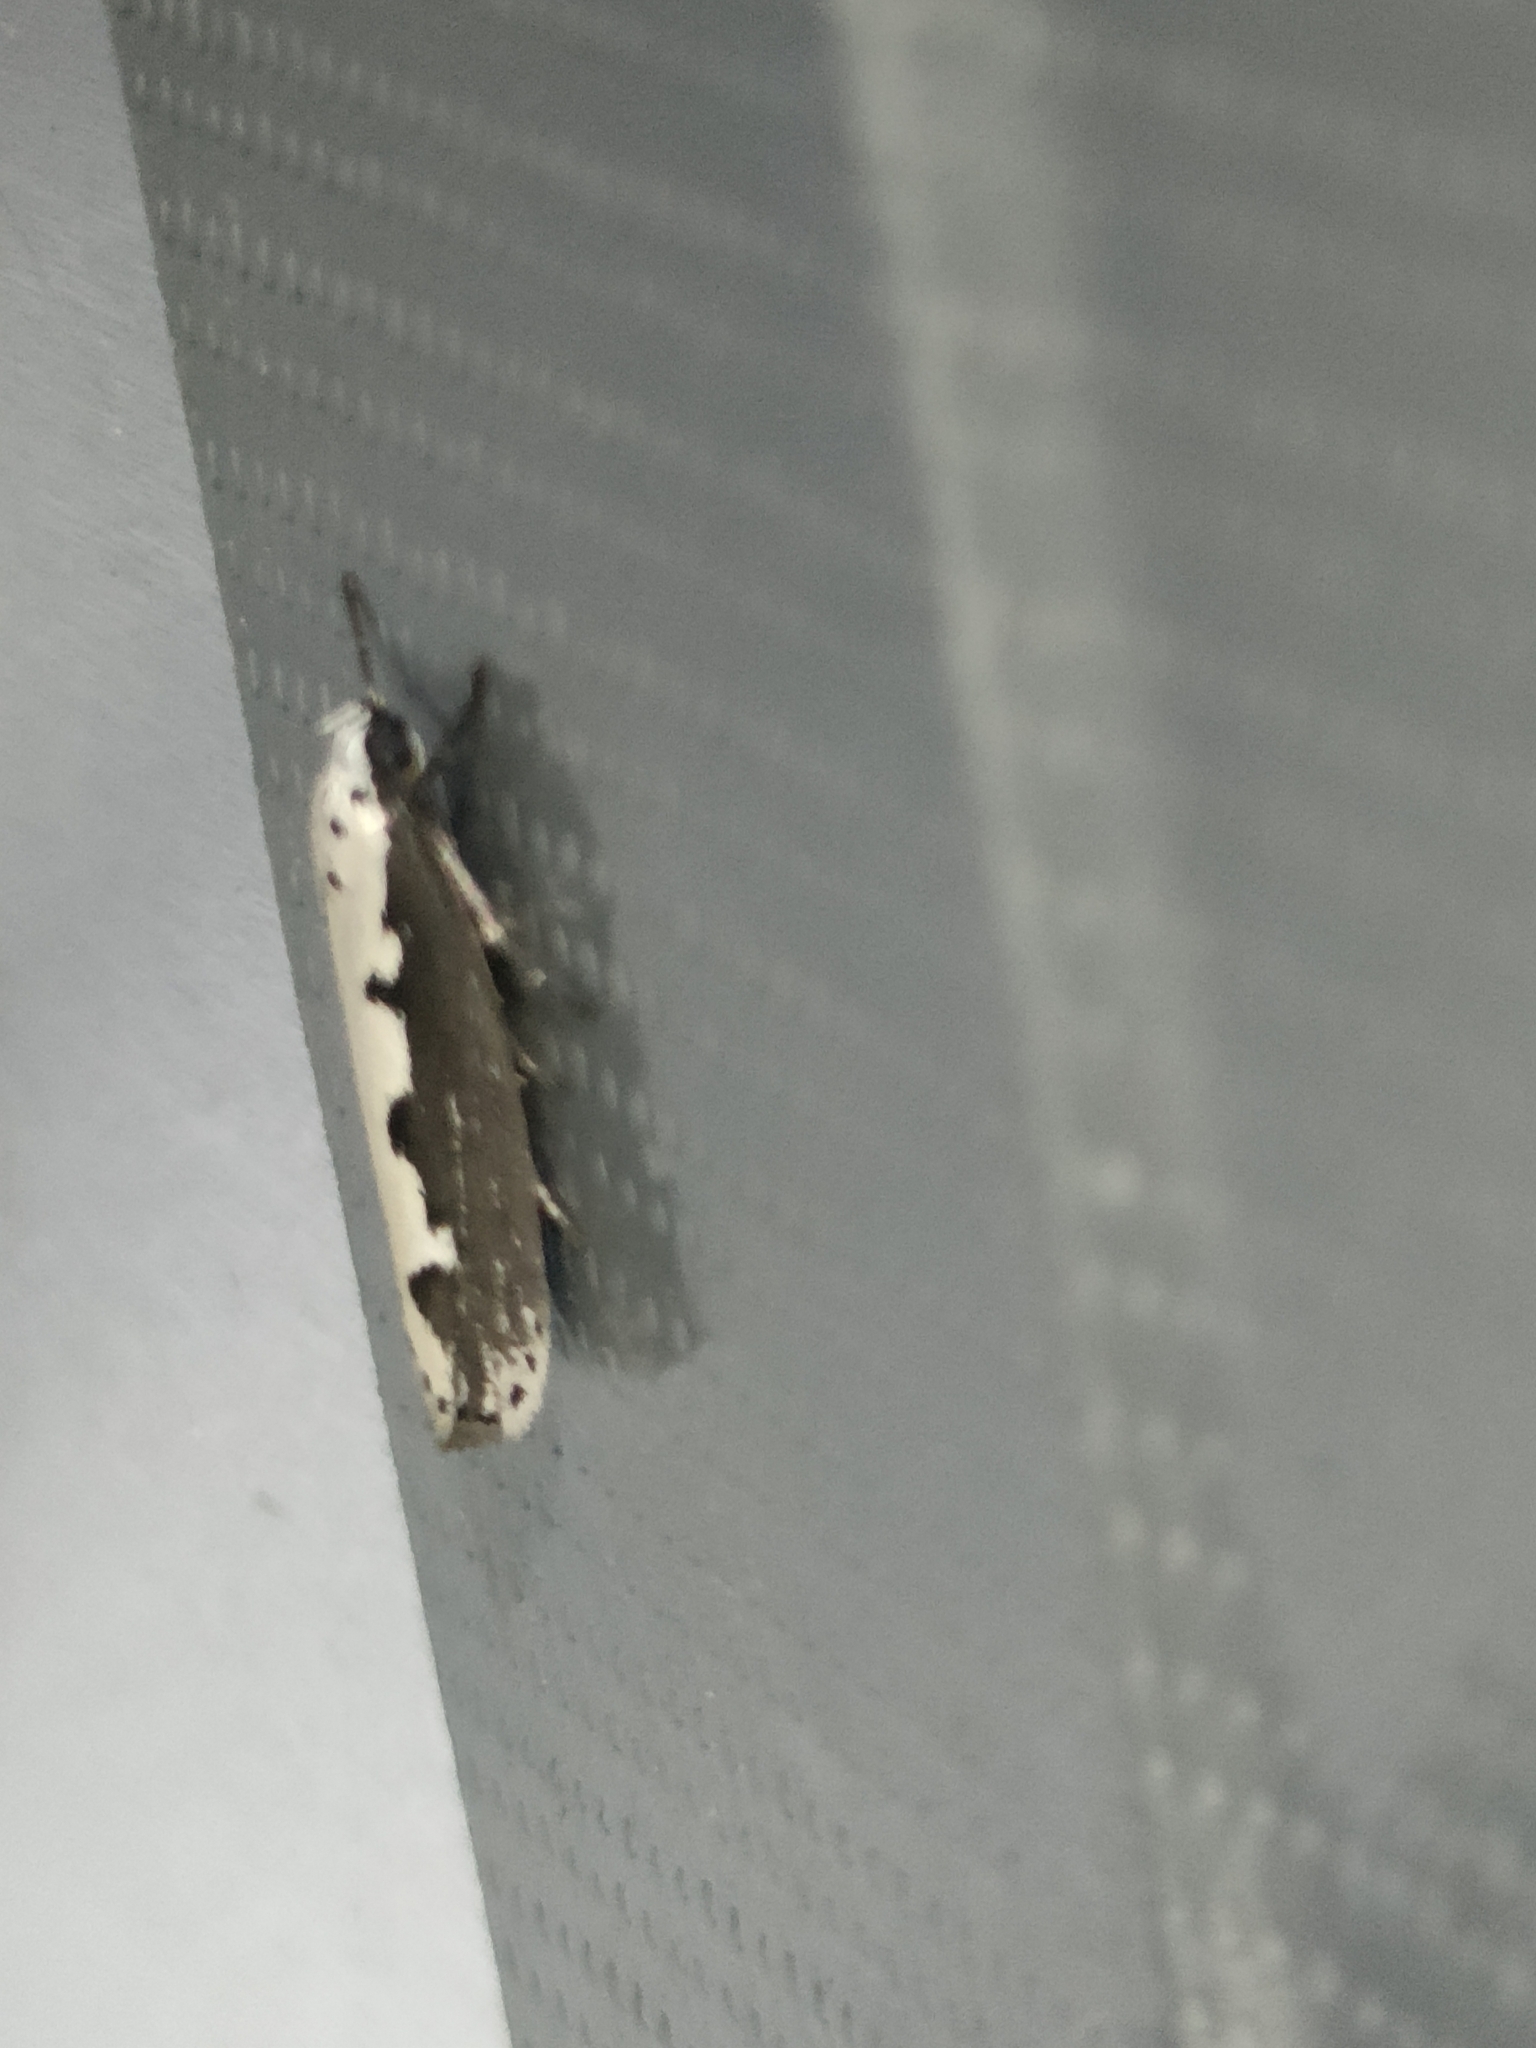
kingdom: Animalia
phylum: Arthropoda
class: Insecta
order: Lepidoptera
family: Ethmiidae
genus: Ethmia
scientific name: Ethmia bipunctella
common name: Bordered ermel
